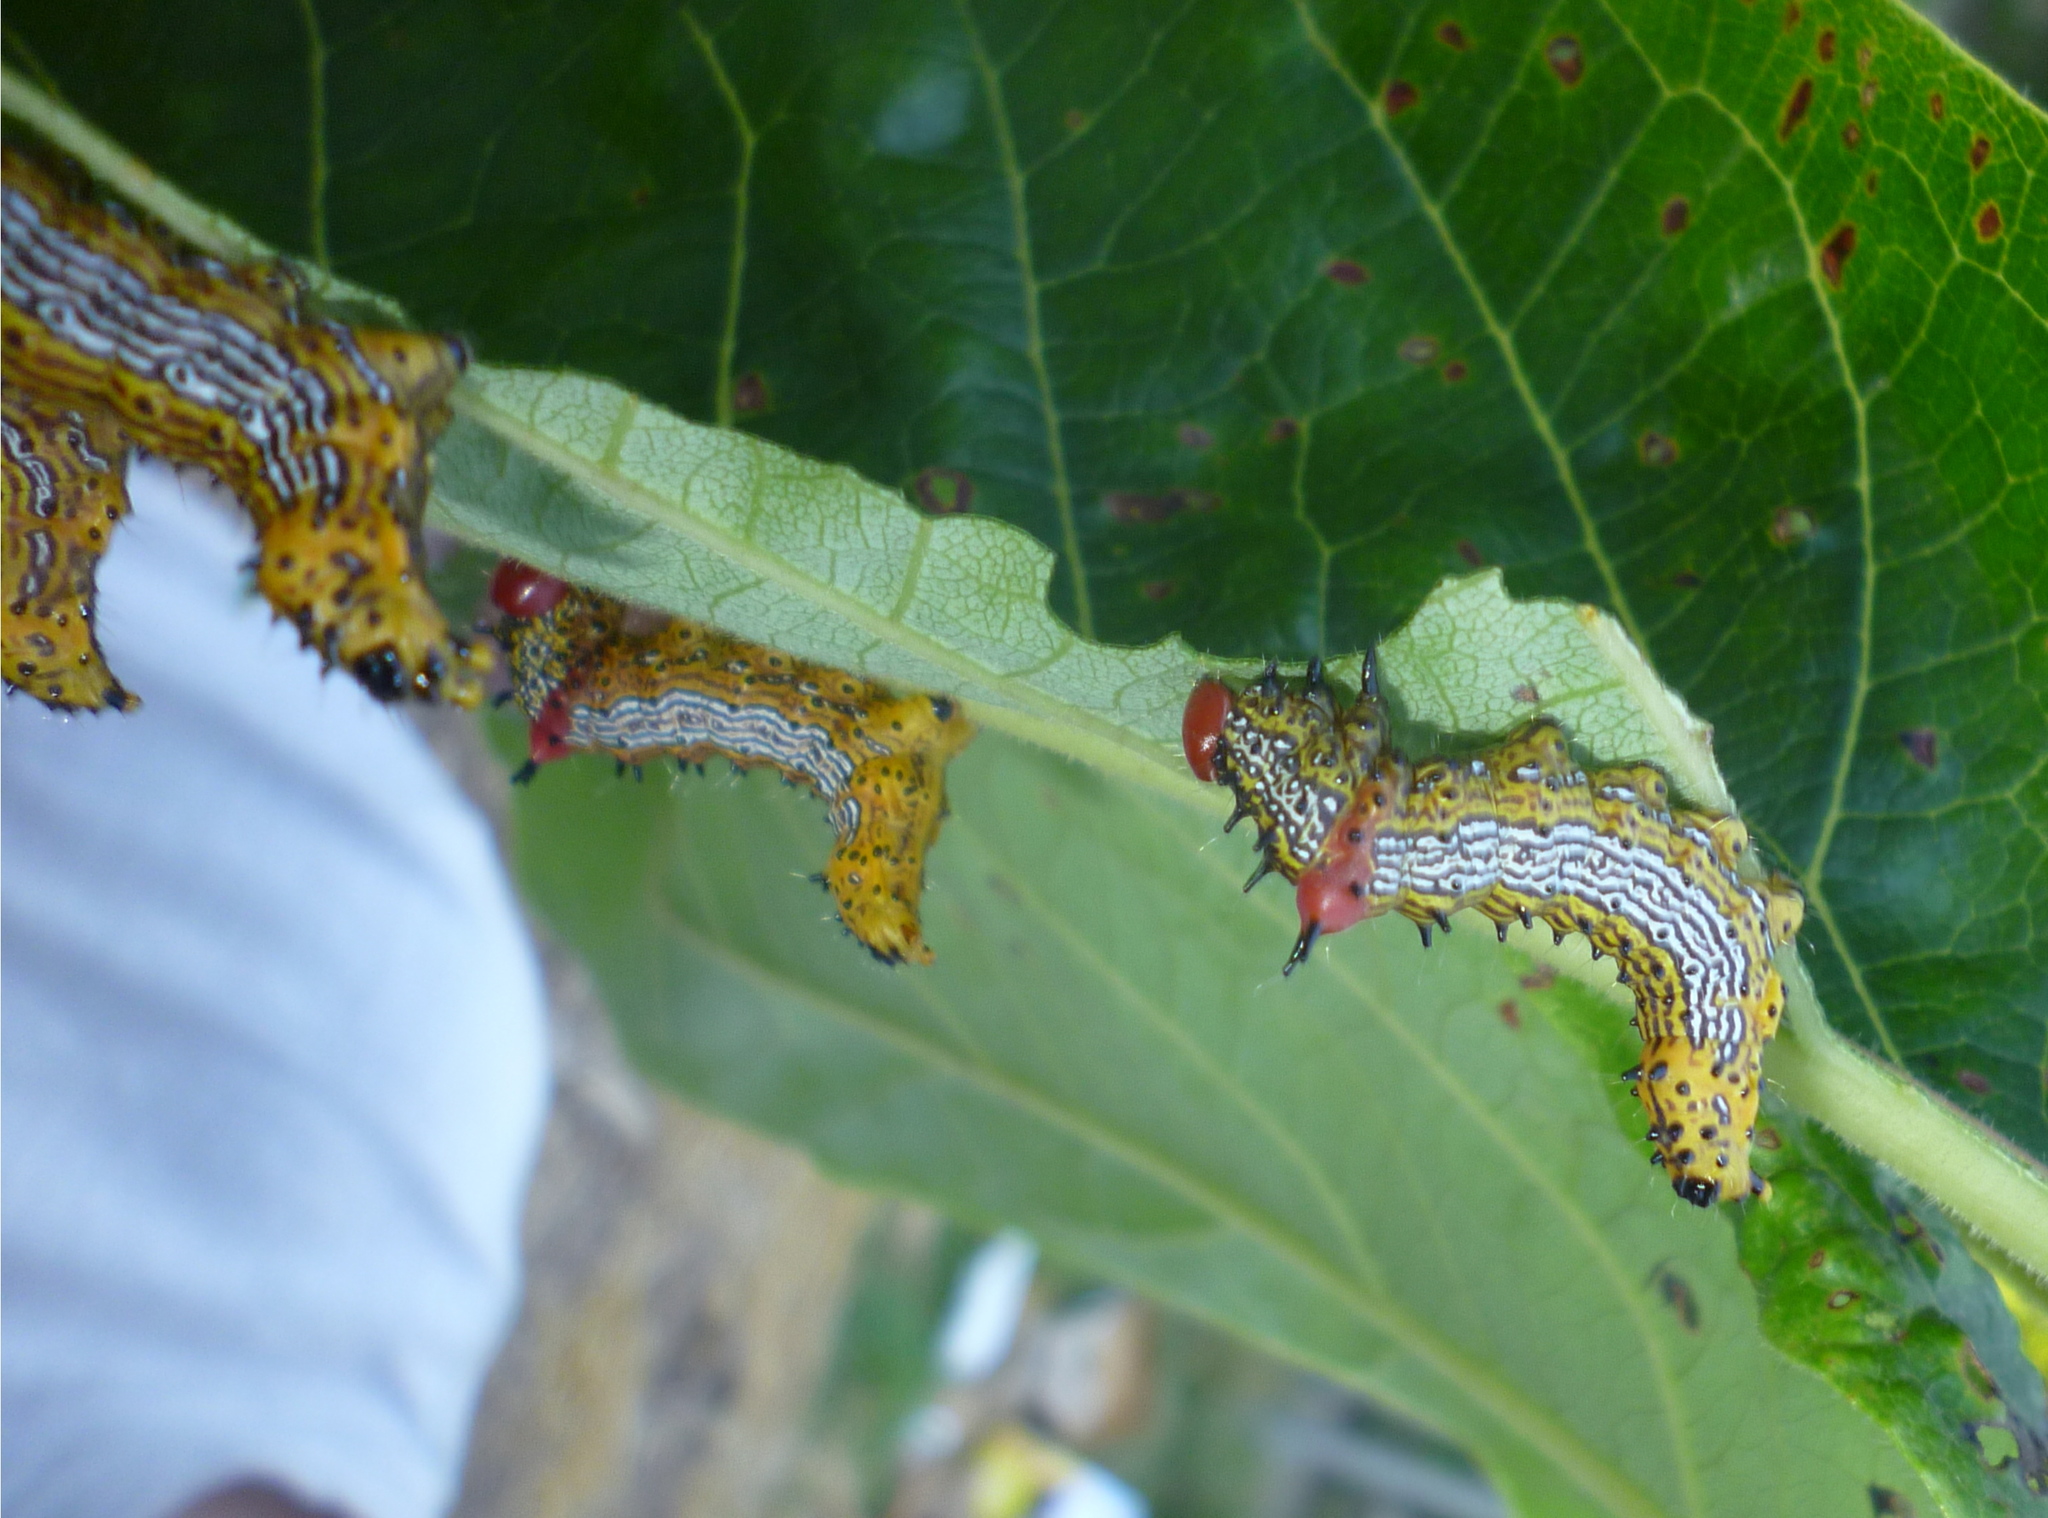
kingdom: Animalia
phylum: Arthropoda
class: Insecta
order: Lepidoptera
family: Notodontidae
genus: Schizura
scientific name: Schizura
